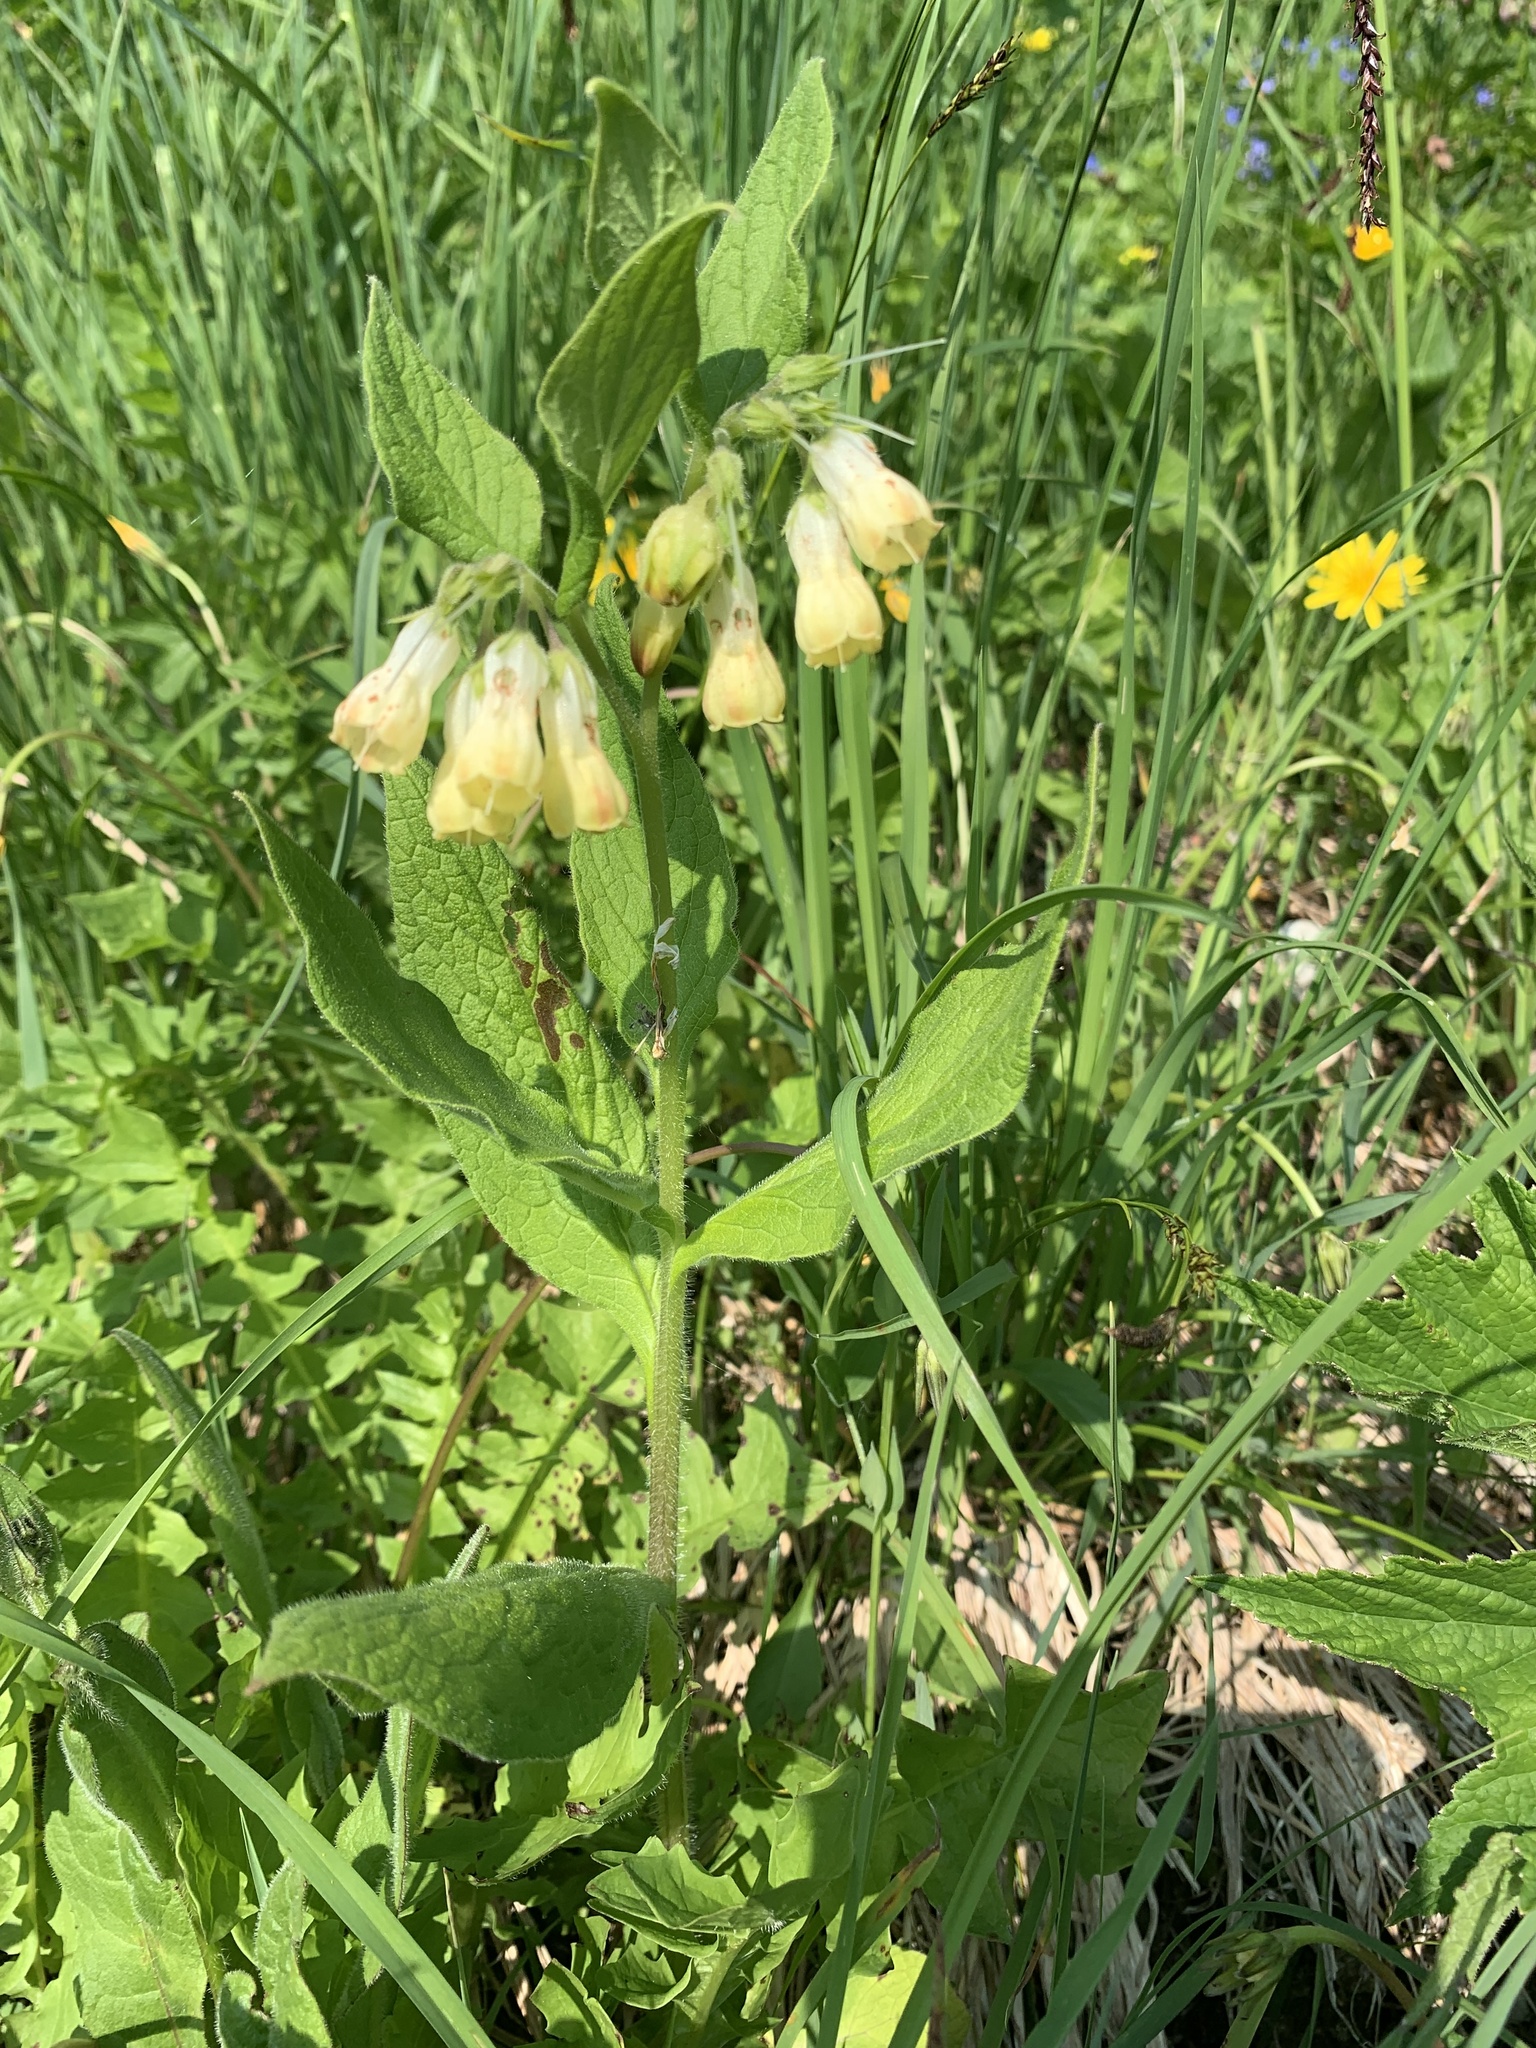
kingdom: Plantae
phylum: Tracheophyta
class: Magnoliopsida
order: Boraginales
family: Boraginaceae
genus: Symphytum
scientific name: Symphytum tuberosum
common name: Tuberous comfrey
